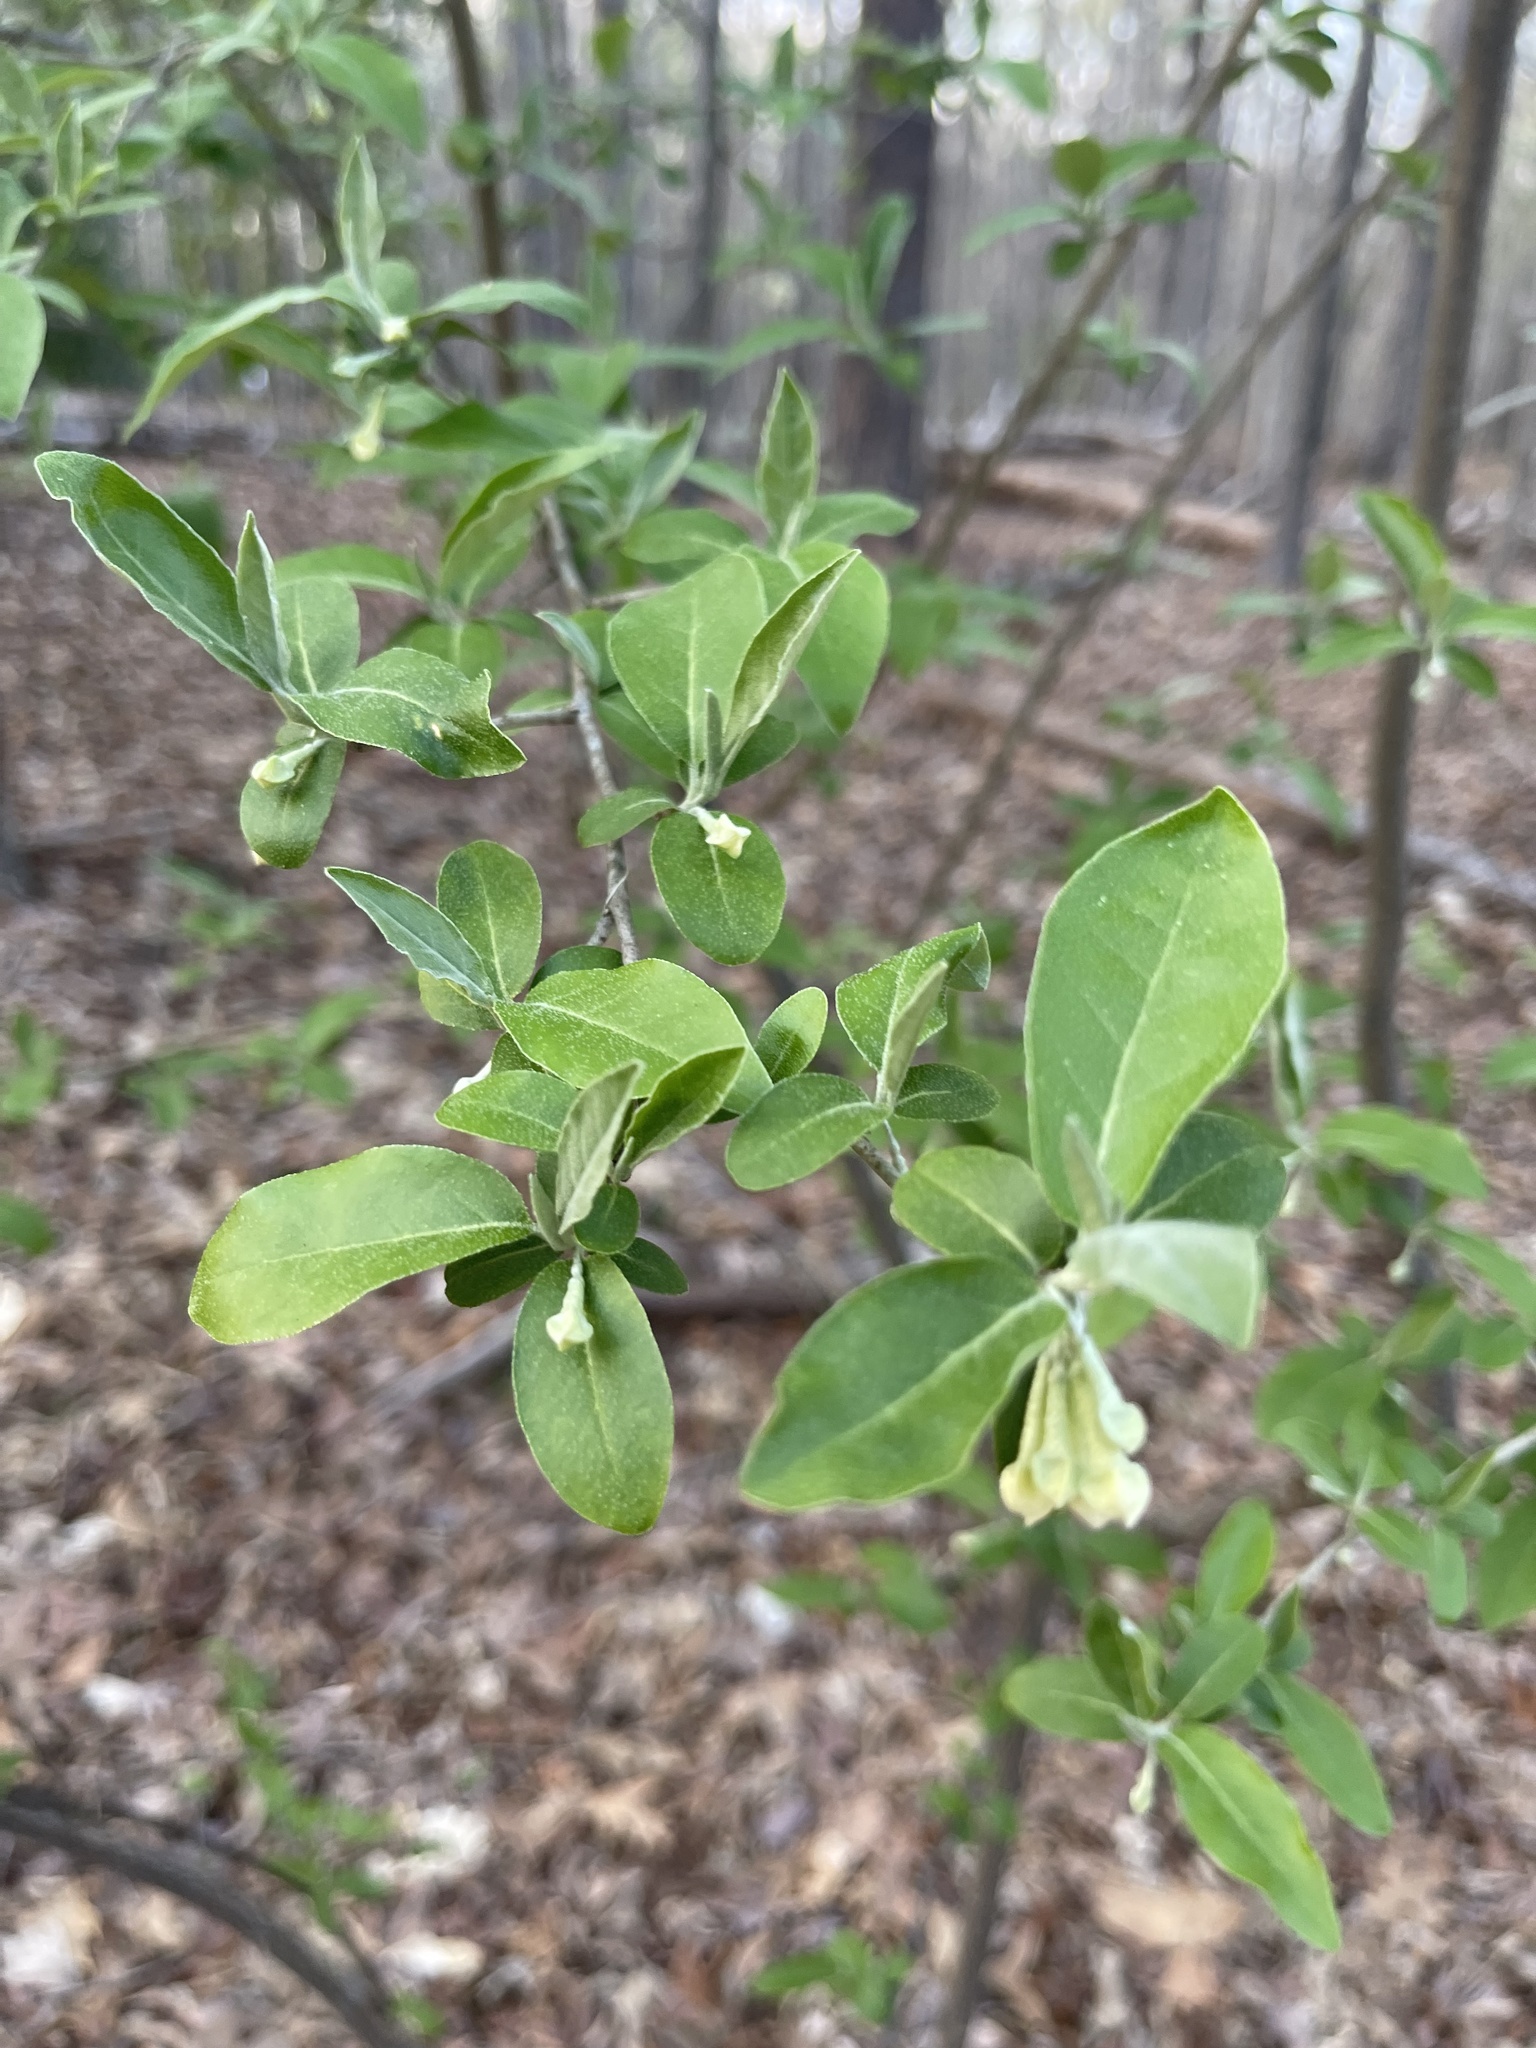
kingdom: Plantae
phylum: Tracheophyta
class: Magnoliopsida
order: Rosales
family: Elaeagnaceae
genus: Elaeagnus
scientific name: Elaeagnus umbellata
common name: Autumn olive
